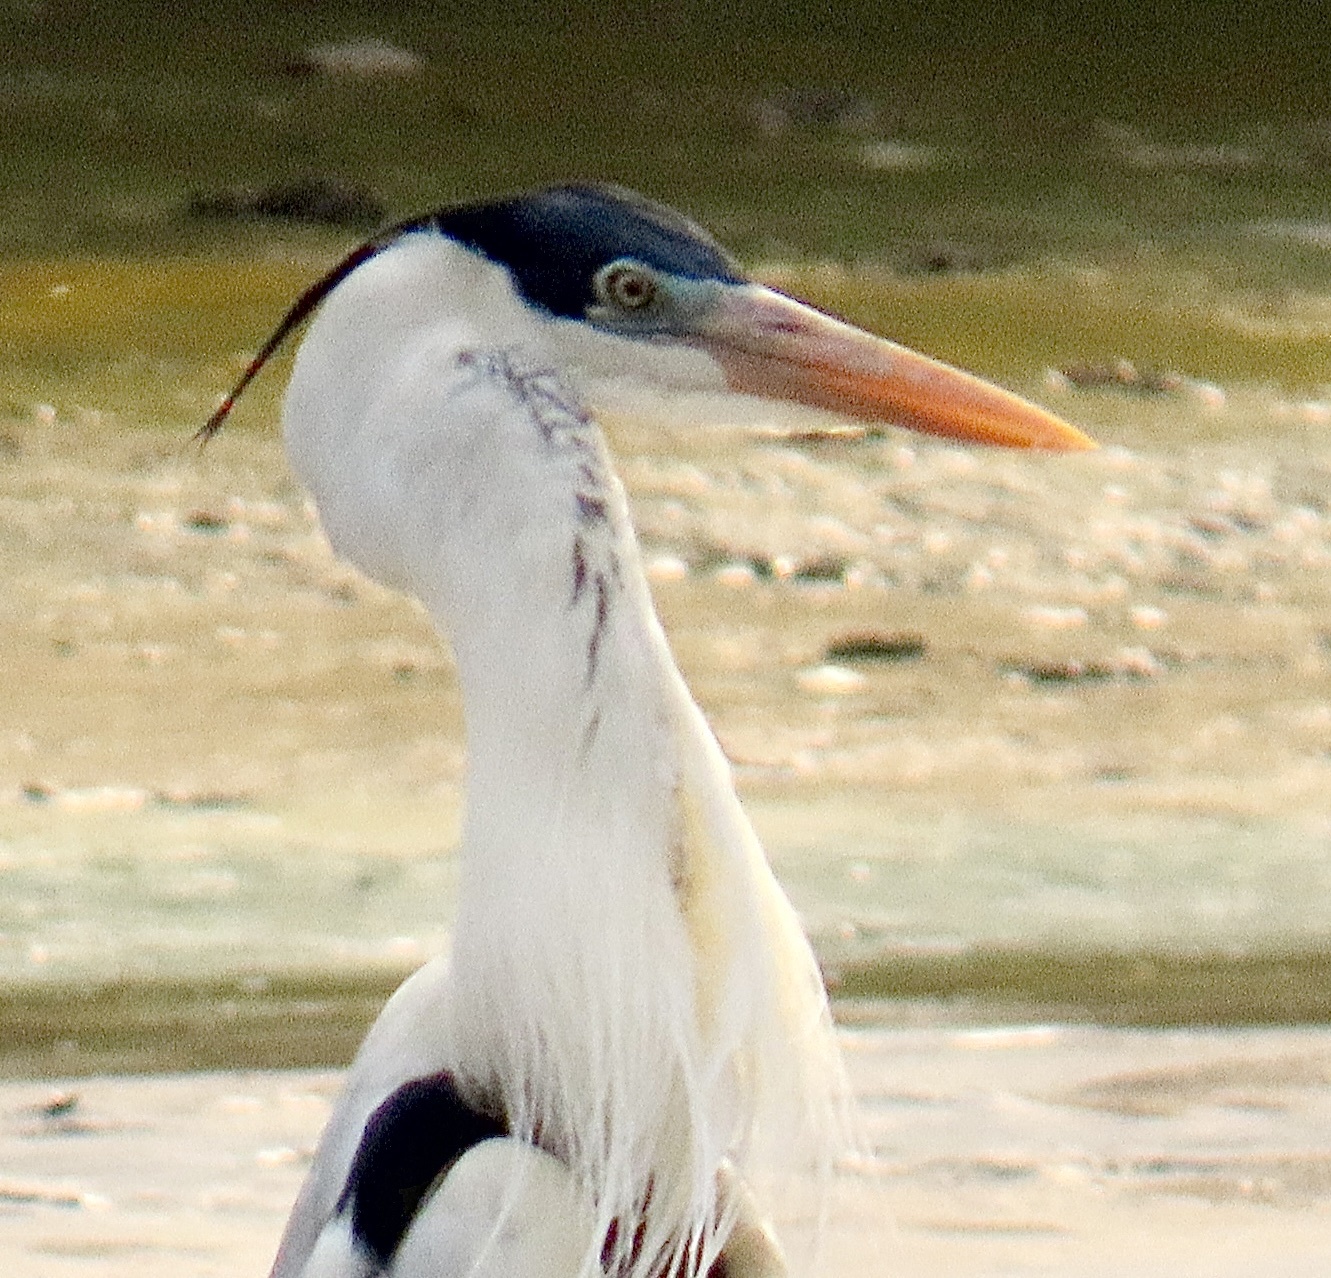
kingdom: Animalia
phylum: Chordata
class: Aves
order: Pelecaniformes
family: Ardeidae
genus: Ardea
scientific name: Ardea cocoi
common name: Cocoi heron
